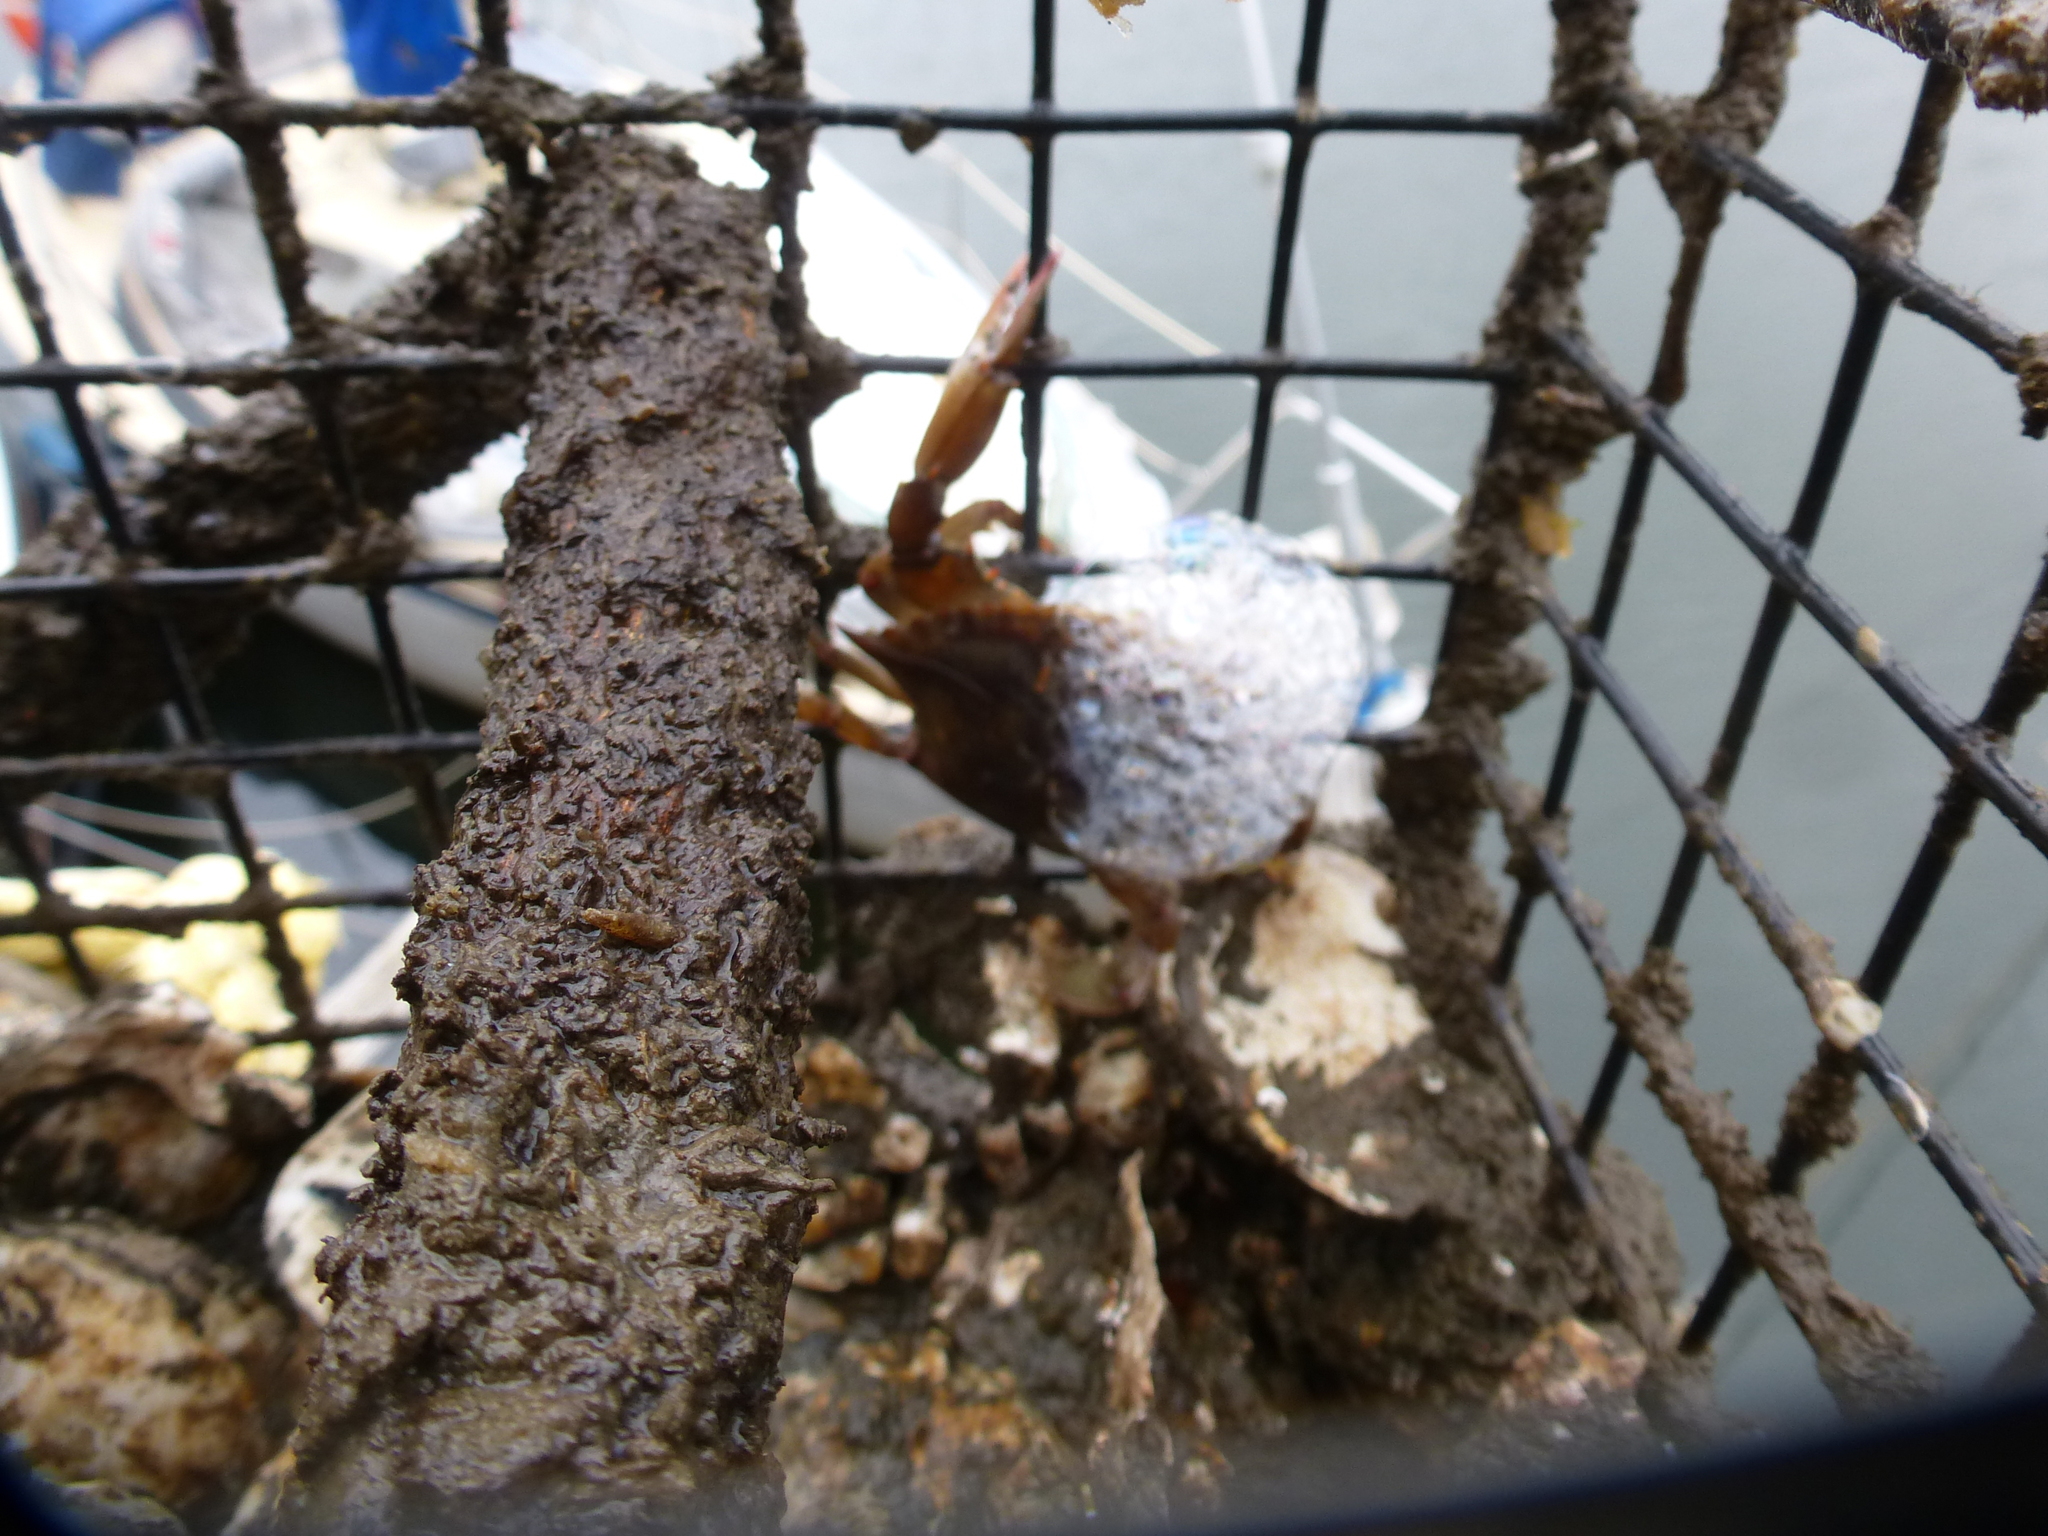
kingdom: Animalia
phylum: Arthropoda
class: Malacostraca
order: Decapoda
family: Portunidae
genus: Callinectes
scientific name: Callinectes sapidus
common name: Blue crab
